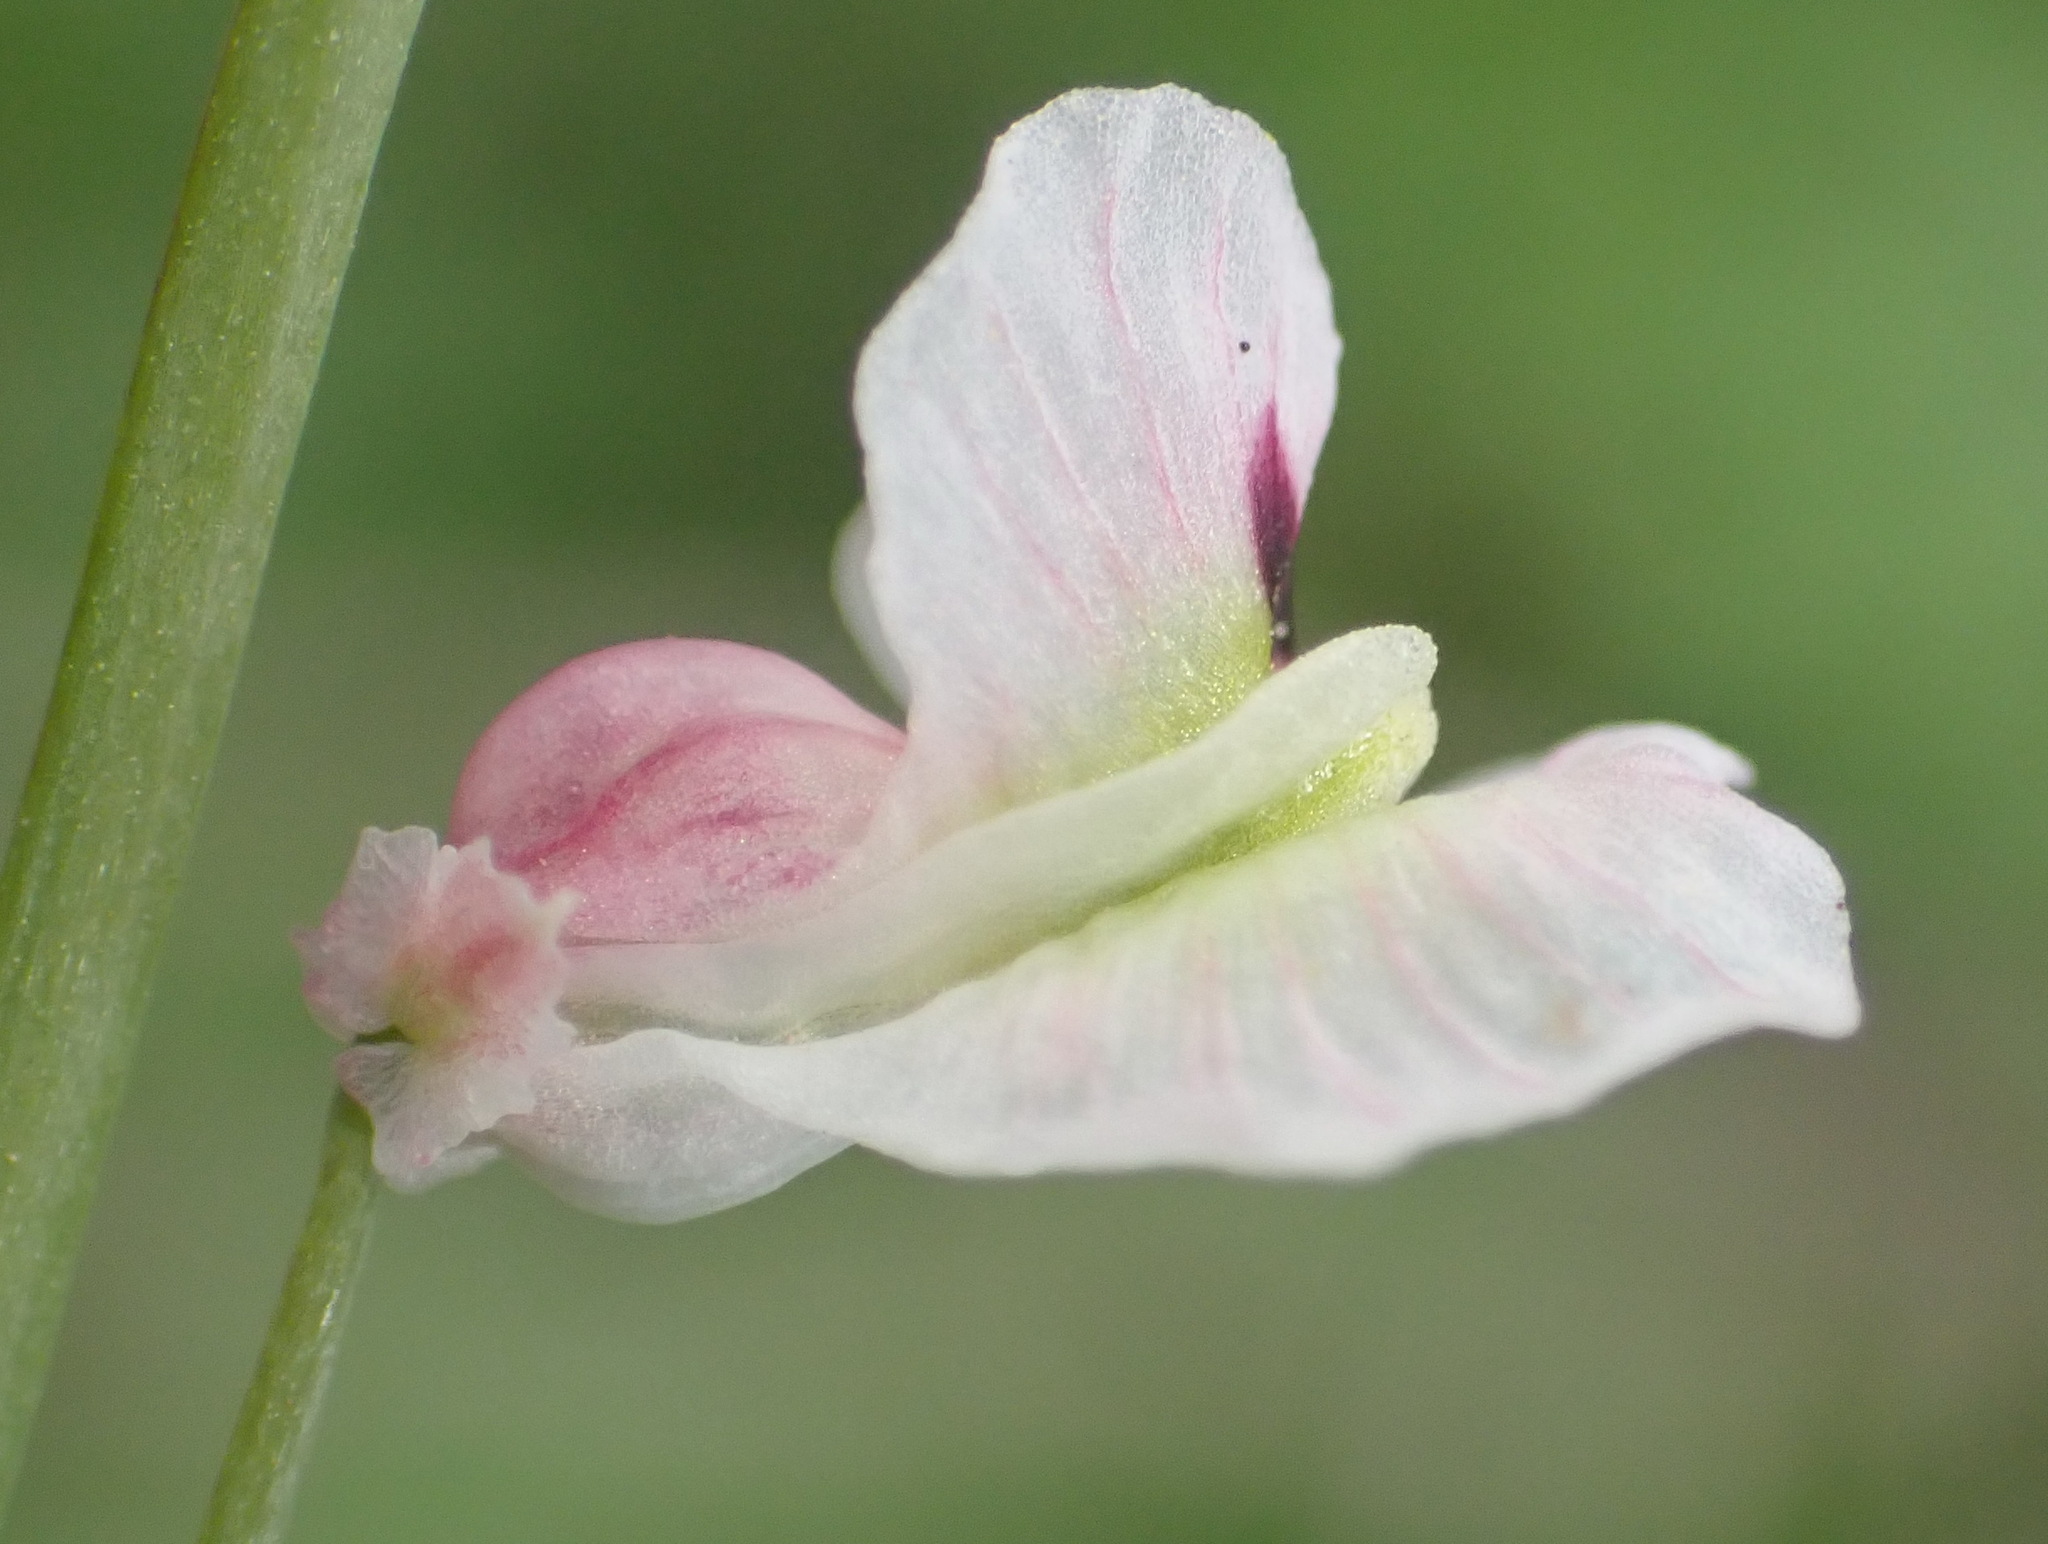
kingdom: Plantae
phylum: Tracheophyta
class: Magnoliopsida
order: Ranunculales
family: Papaveraceae
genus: Cysticapnos
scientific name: Cysticapnos vesicaria
